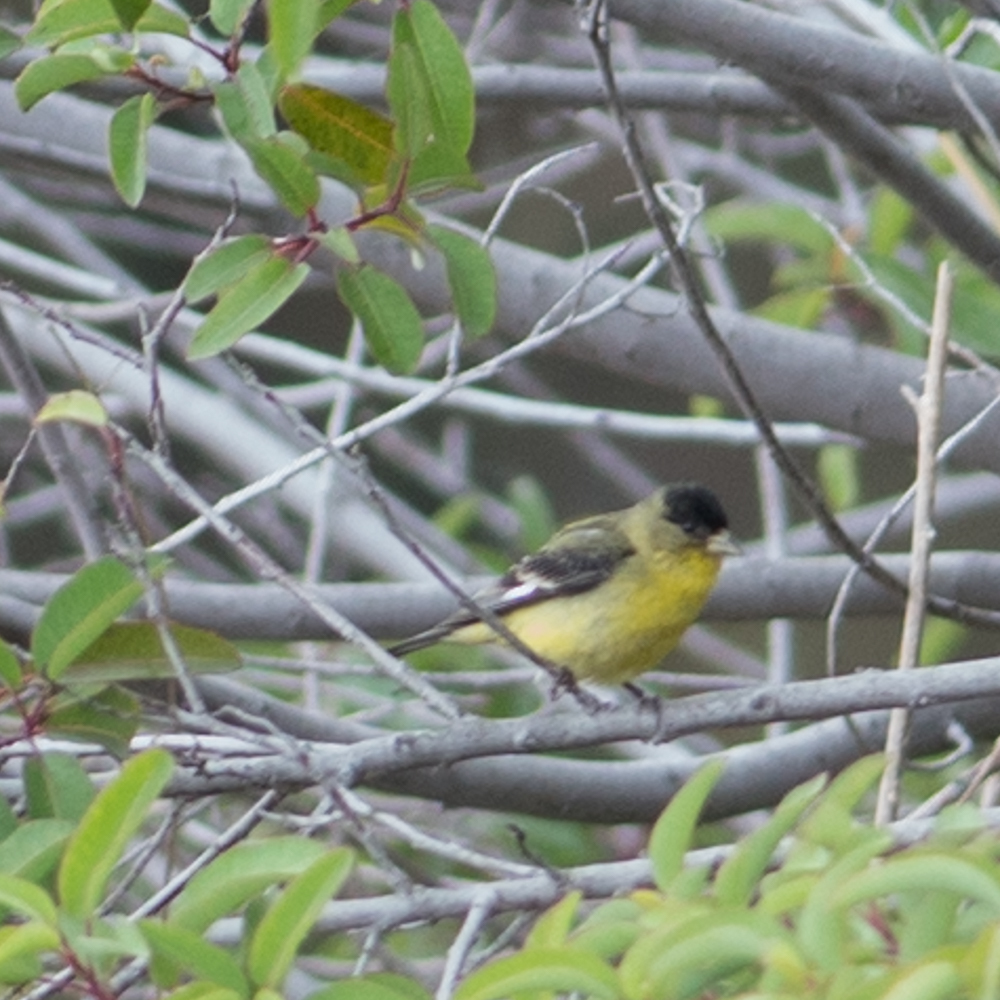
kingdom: Animalia
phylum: Chordata
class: Aves
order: Passeriformes
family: Fringillidae
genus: Spinus
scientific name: Spinus psaltria
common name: Lesser goldfinch
